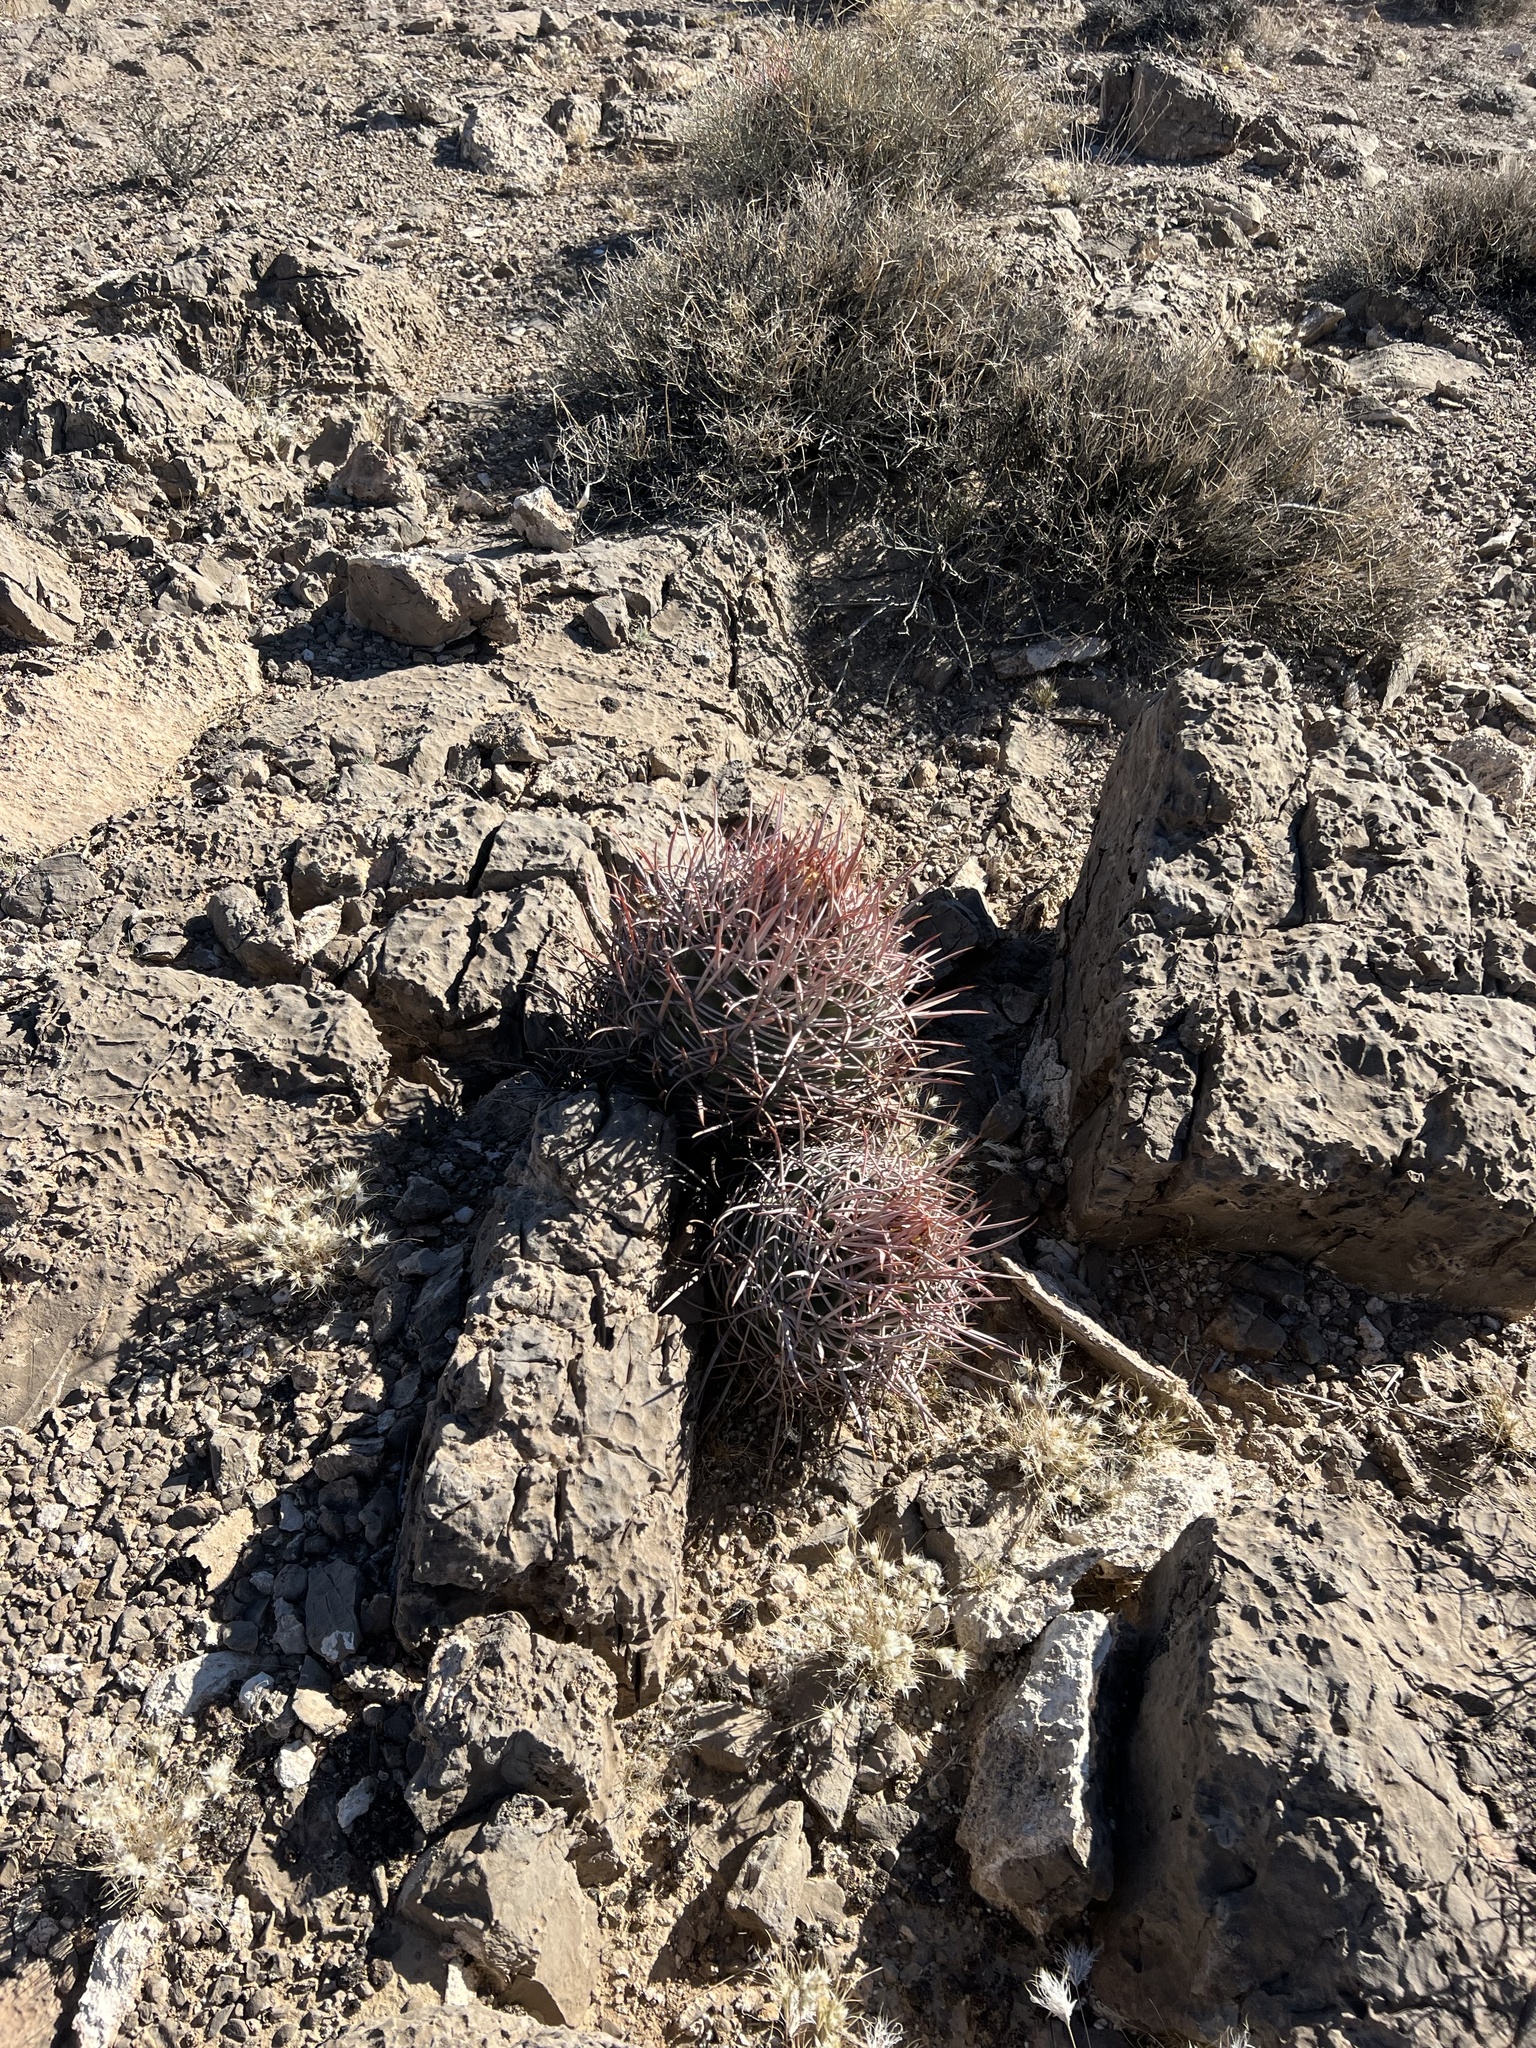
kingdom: Plantae
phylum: Tracheophyta
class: Magnoliopsida
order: Caryophyllales
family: Cactaceae
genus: Echinocactus
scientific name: Echinocactus polycephalus
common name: Cottontop cactus
